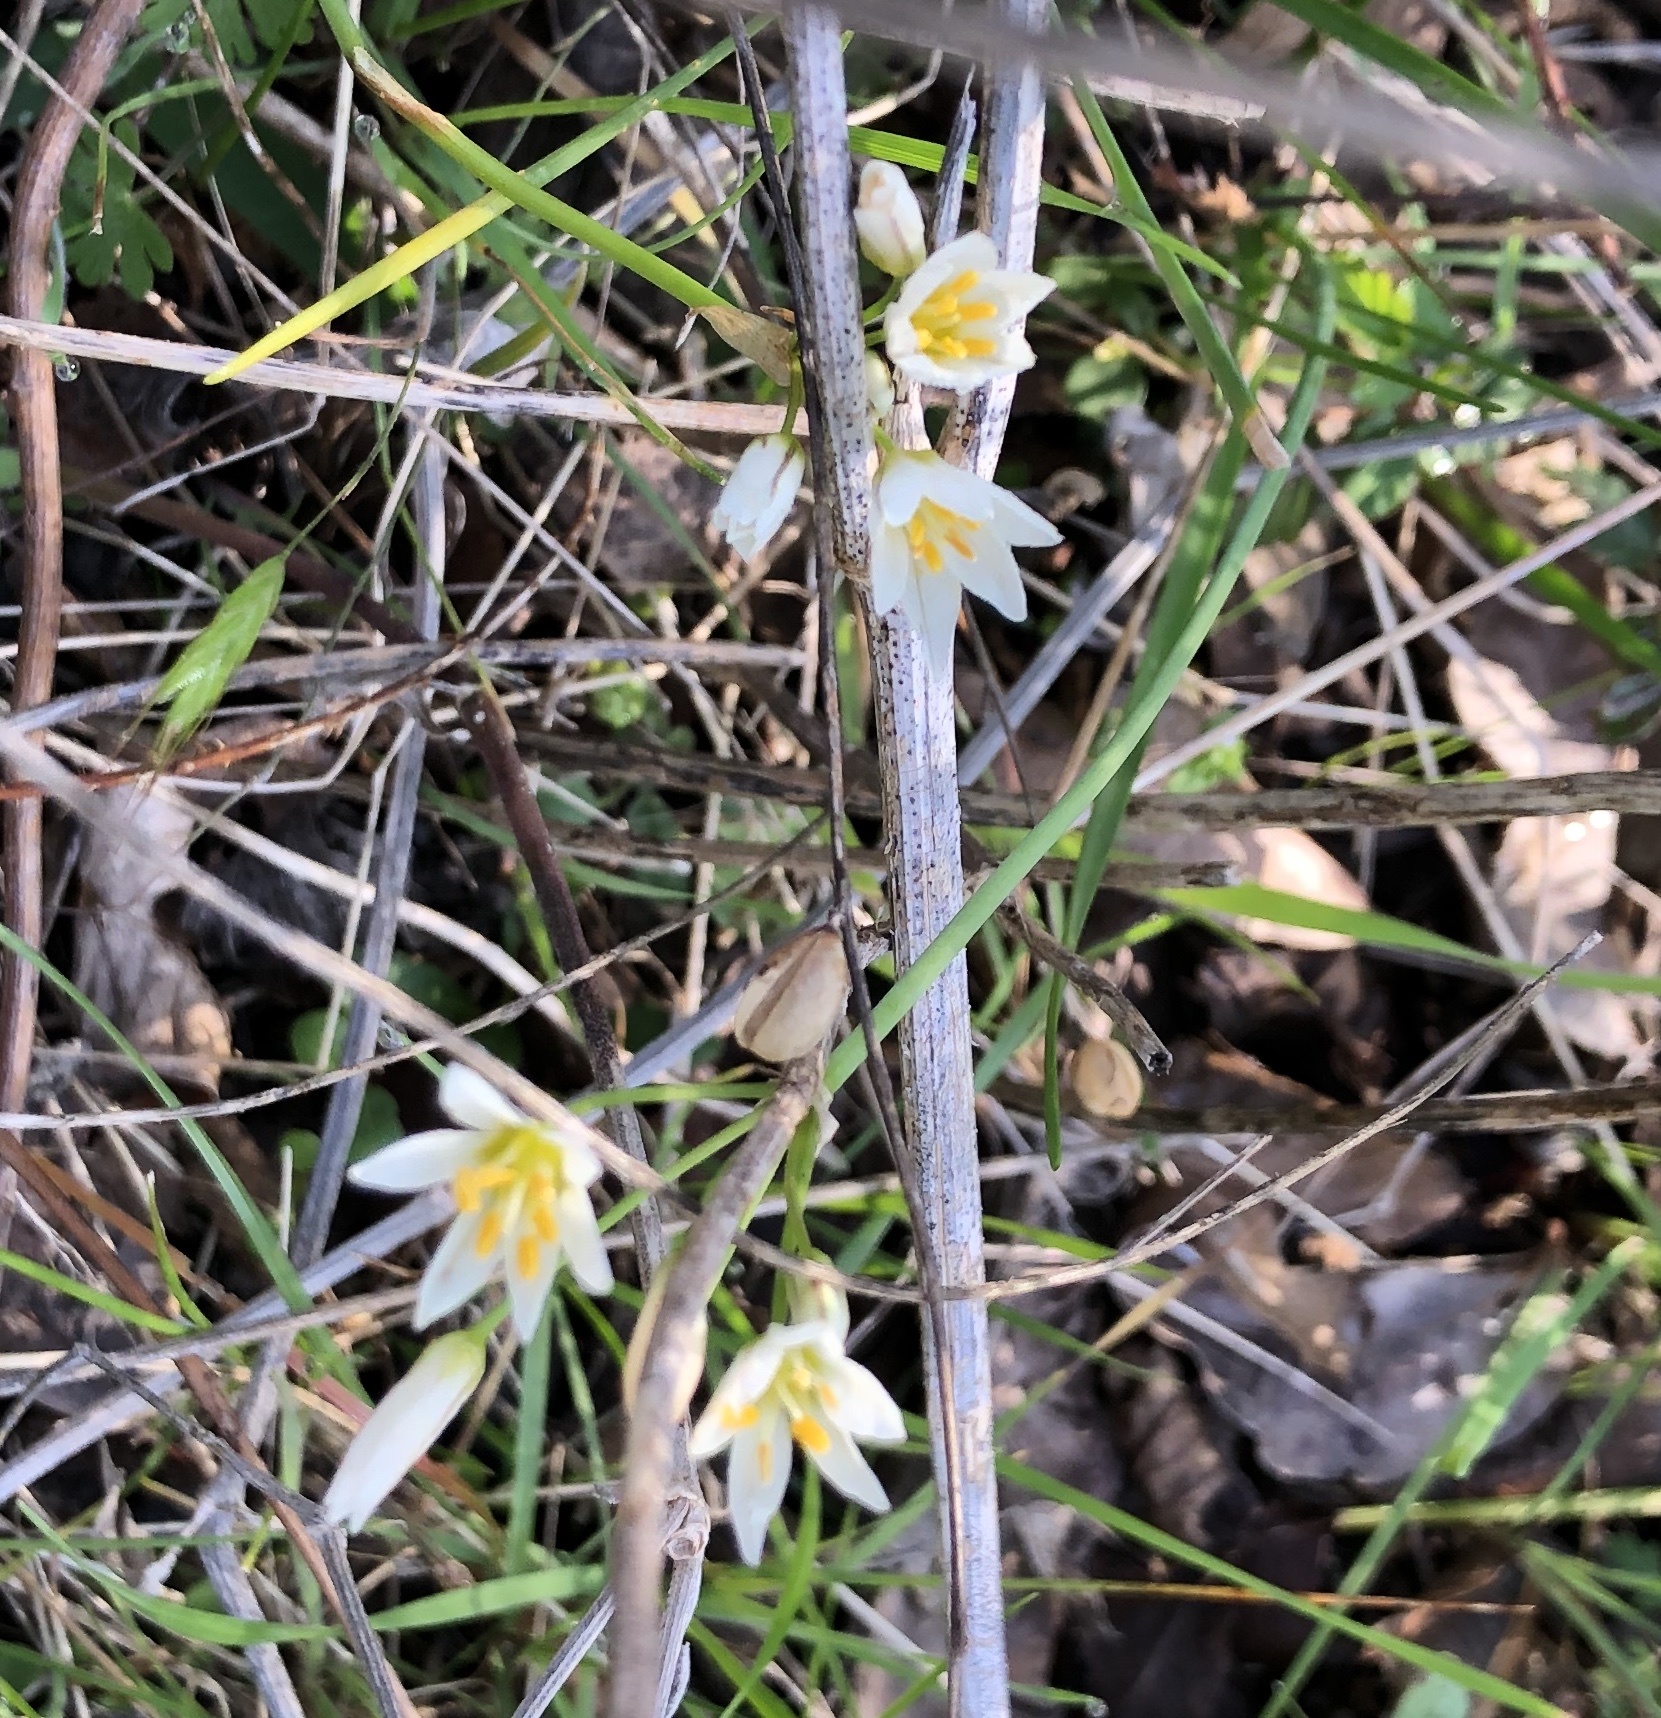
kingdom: Plantae
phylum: Tracheophyta
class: Liliopsida
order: Asparagales
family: Amaryllidaceae
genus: Nothoscordum
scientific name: Nothoscordum bivalve
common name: Crow-poison
